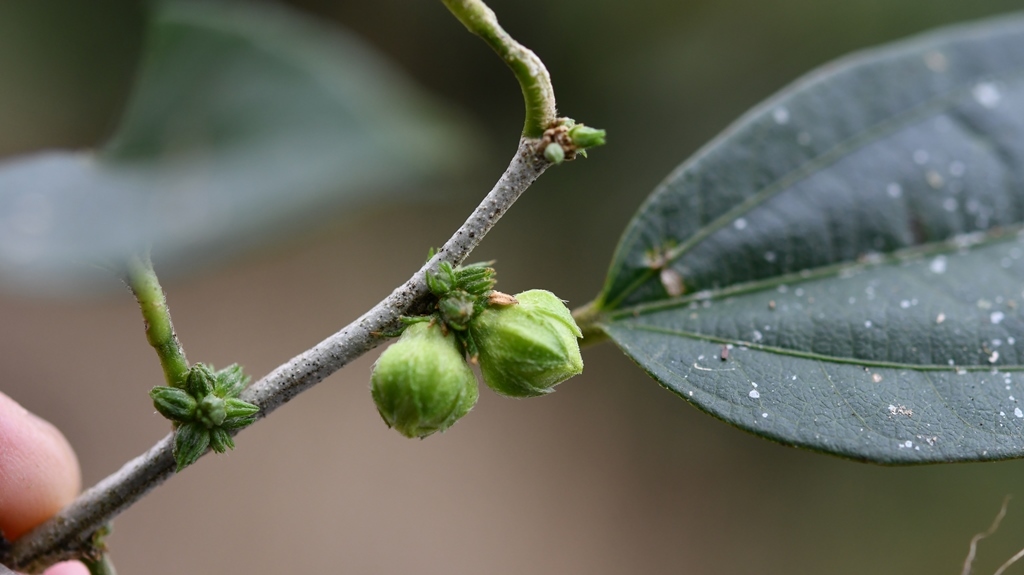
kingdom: Plantae
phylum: Tracheophyta
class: Magnoliopsida
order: Malvales
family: Malvaceae
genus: Hibiscus
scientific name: Hibiscus purpusii
